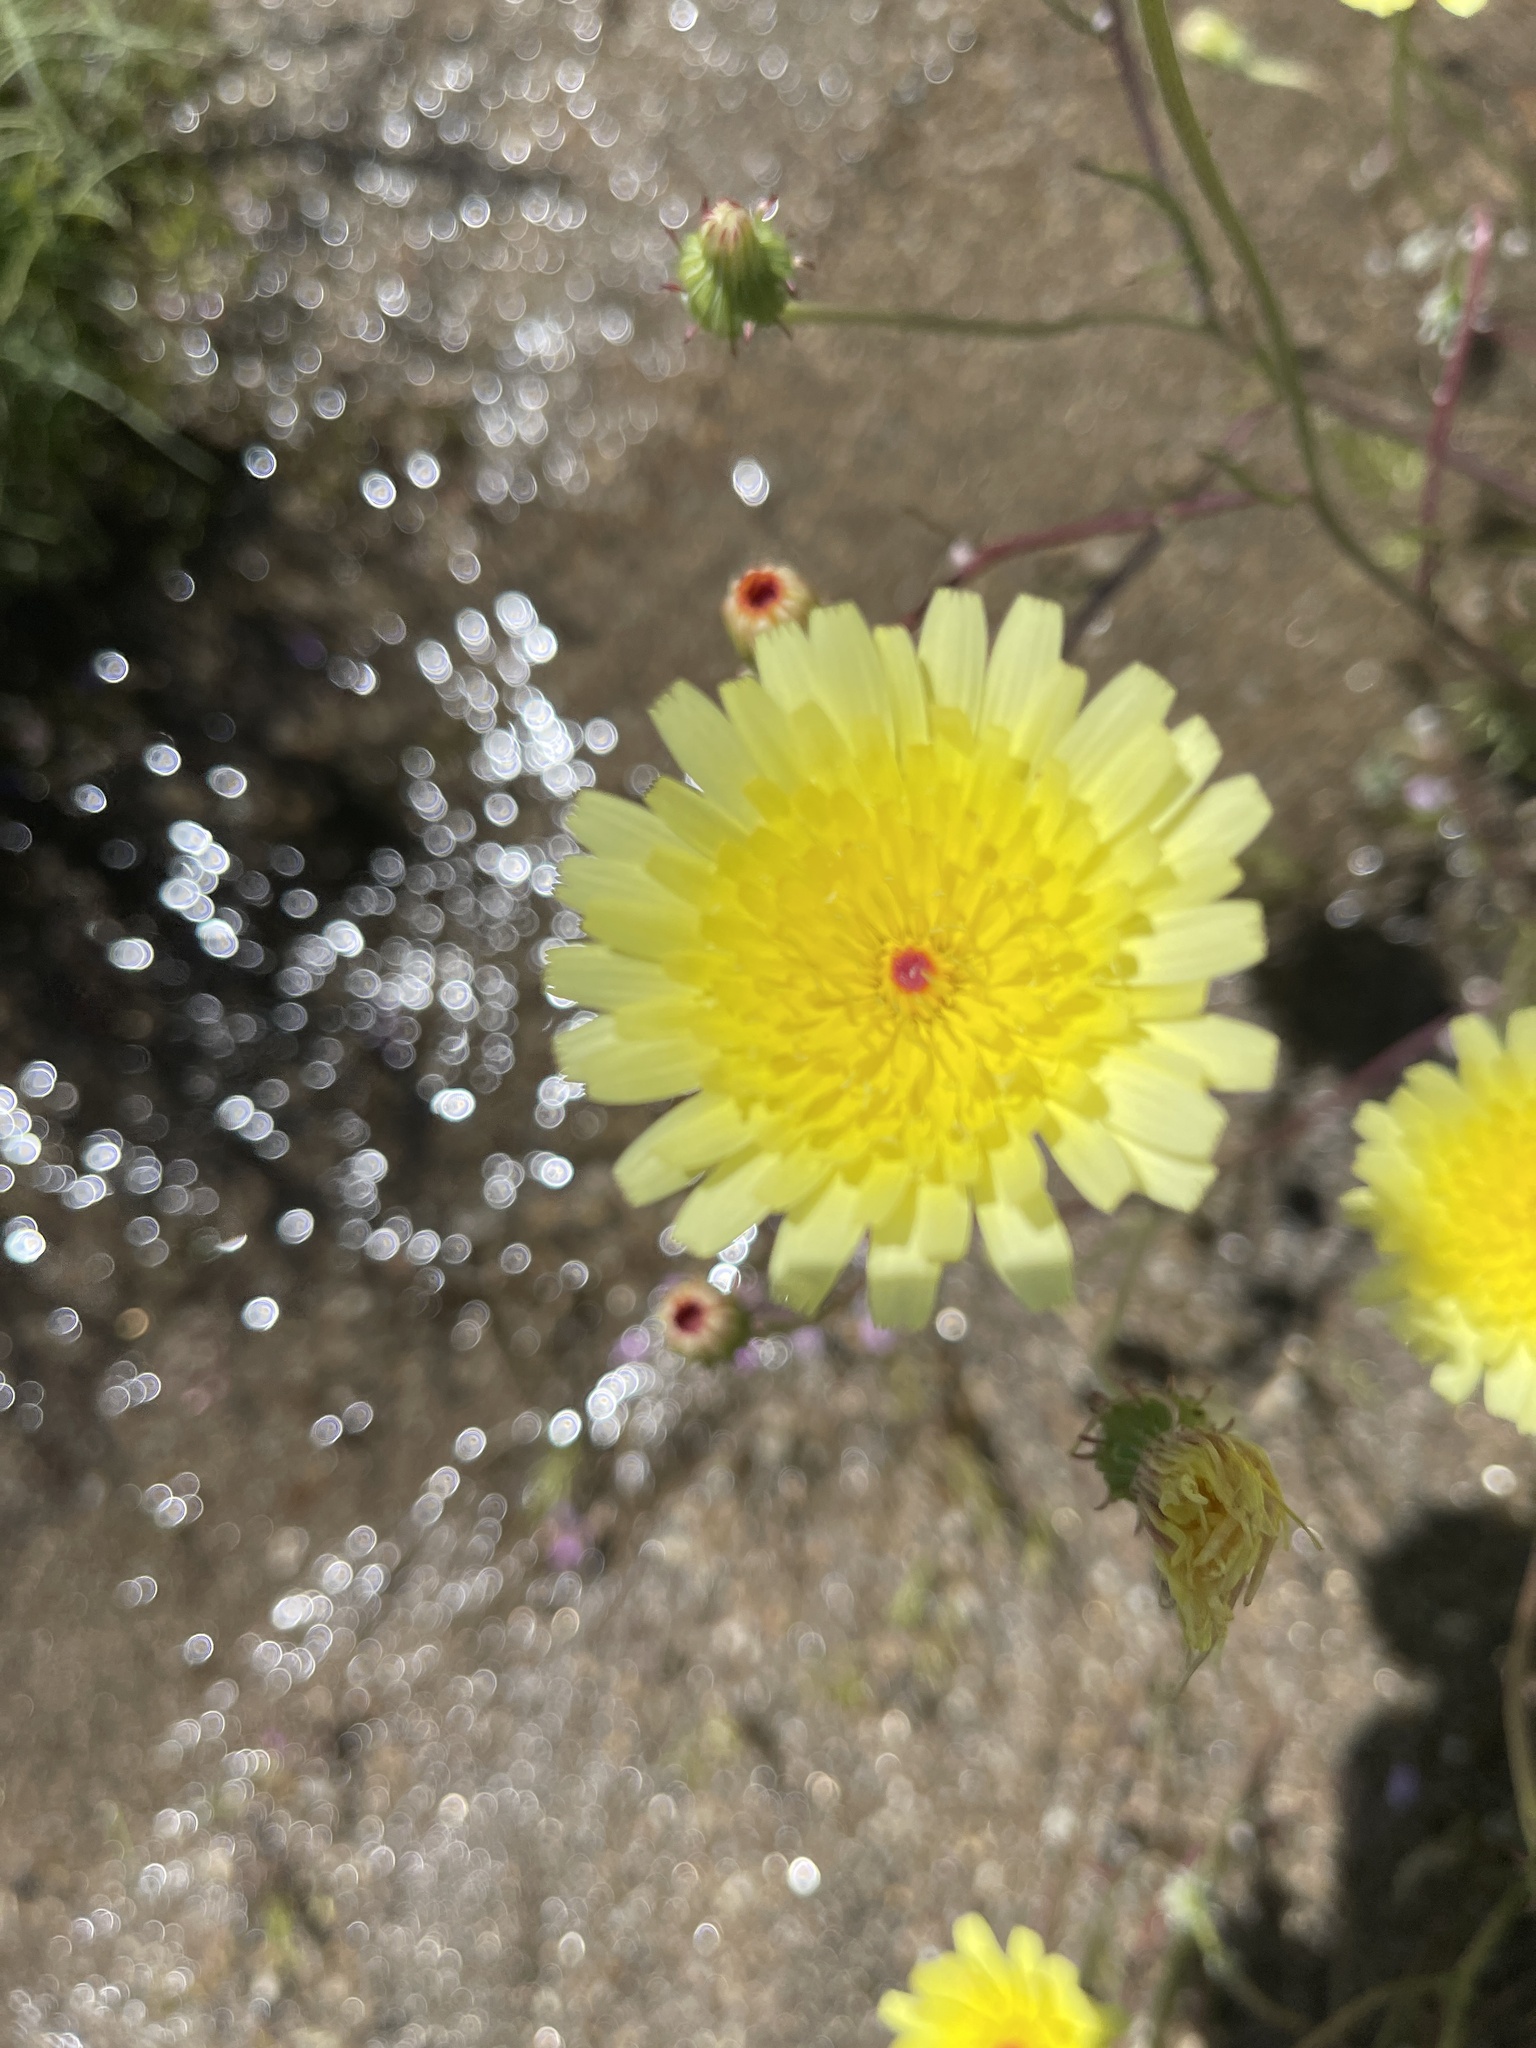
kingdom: Plantae
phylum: Tracheophyta
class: Magnoliopsida
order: Asterales
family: Asteraceae
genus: Malacothrix
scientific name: Malacothrix glabrata
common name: Smooth desert-dandelion
